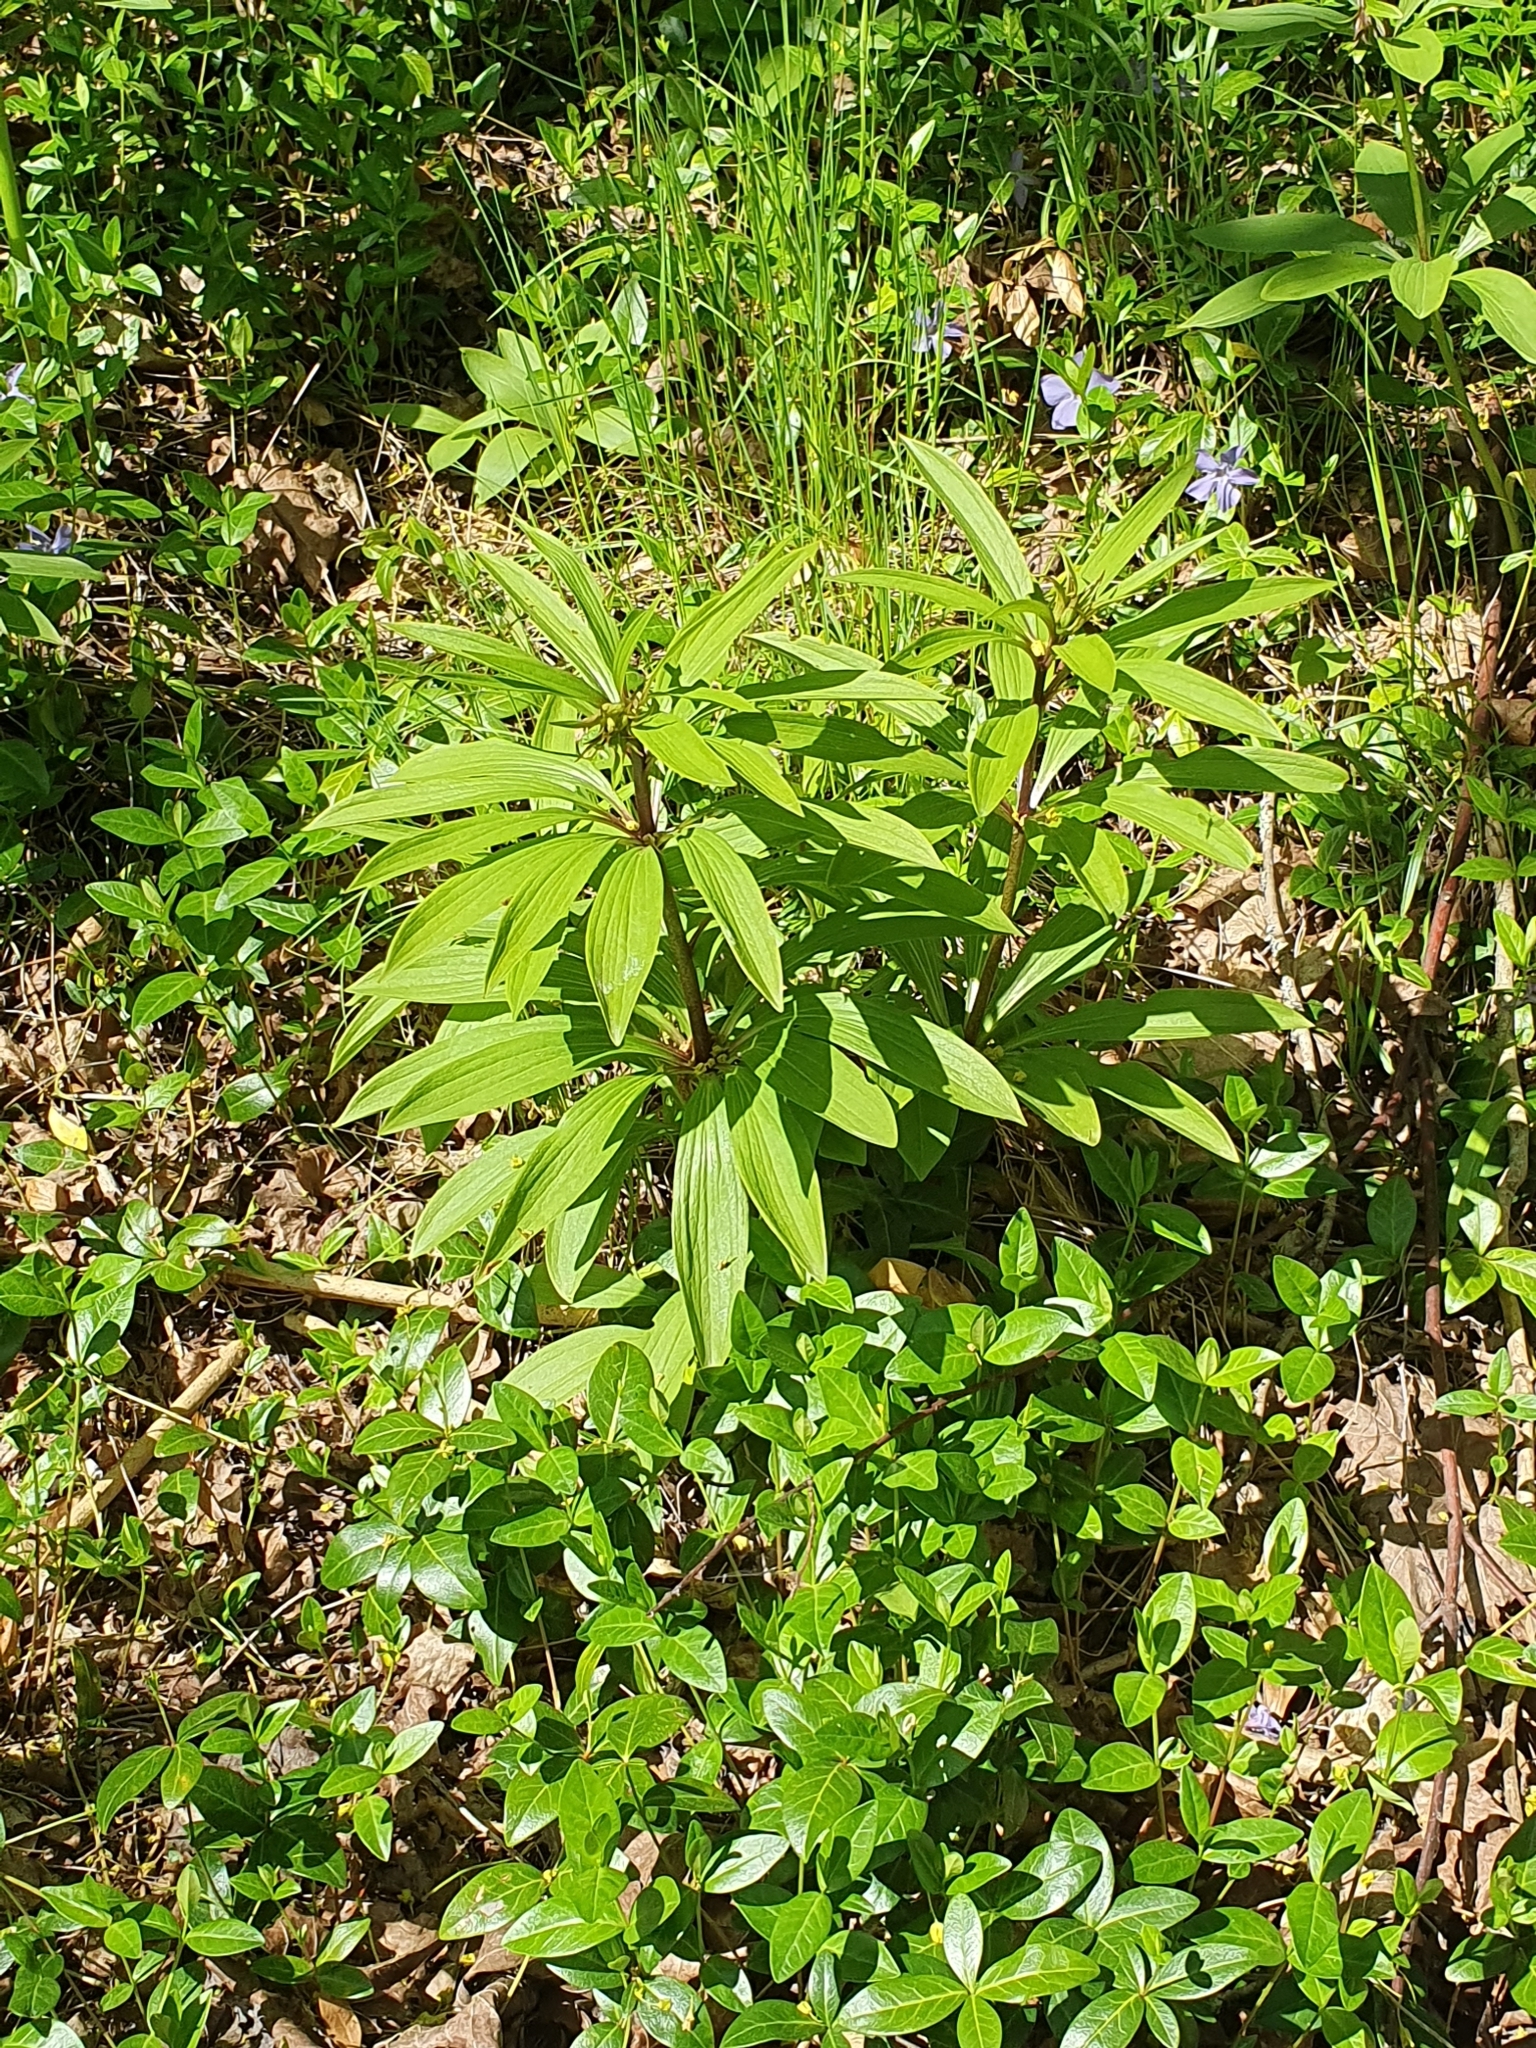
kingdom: Plantae
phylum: Tracheophyta
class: Liliopsida
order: Liliales
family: Liliaceae
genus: Lilium
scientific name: Lilium martagon
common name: Martagon lily
